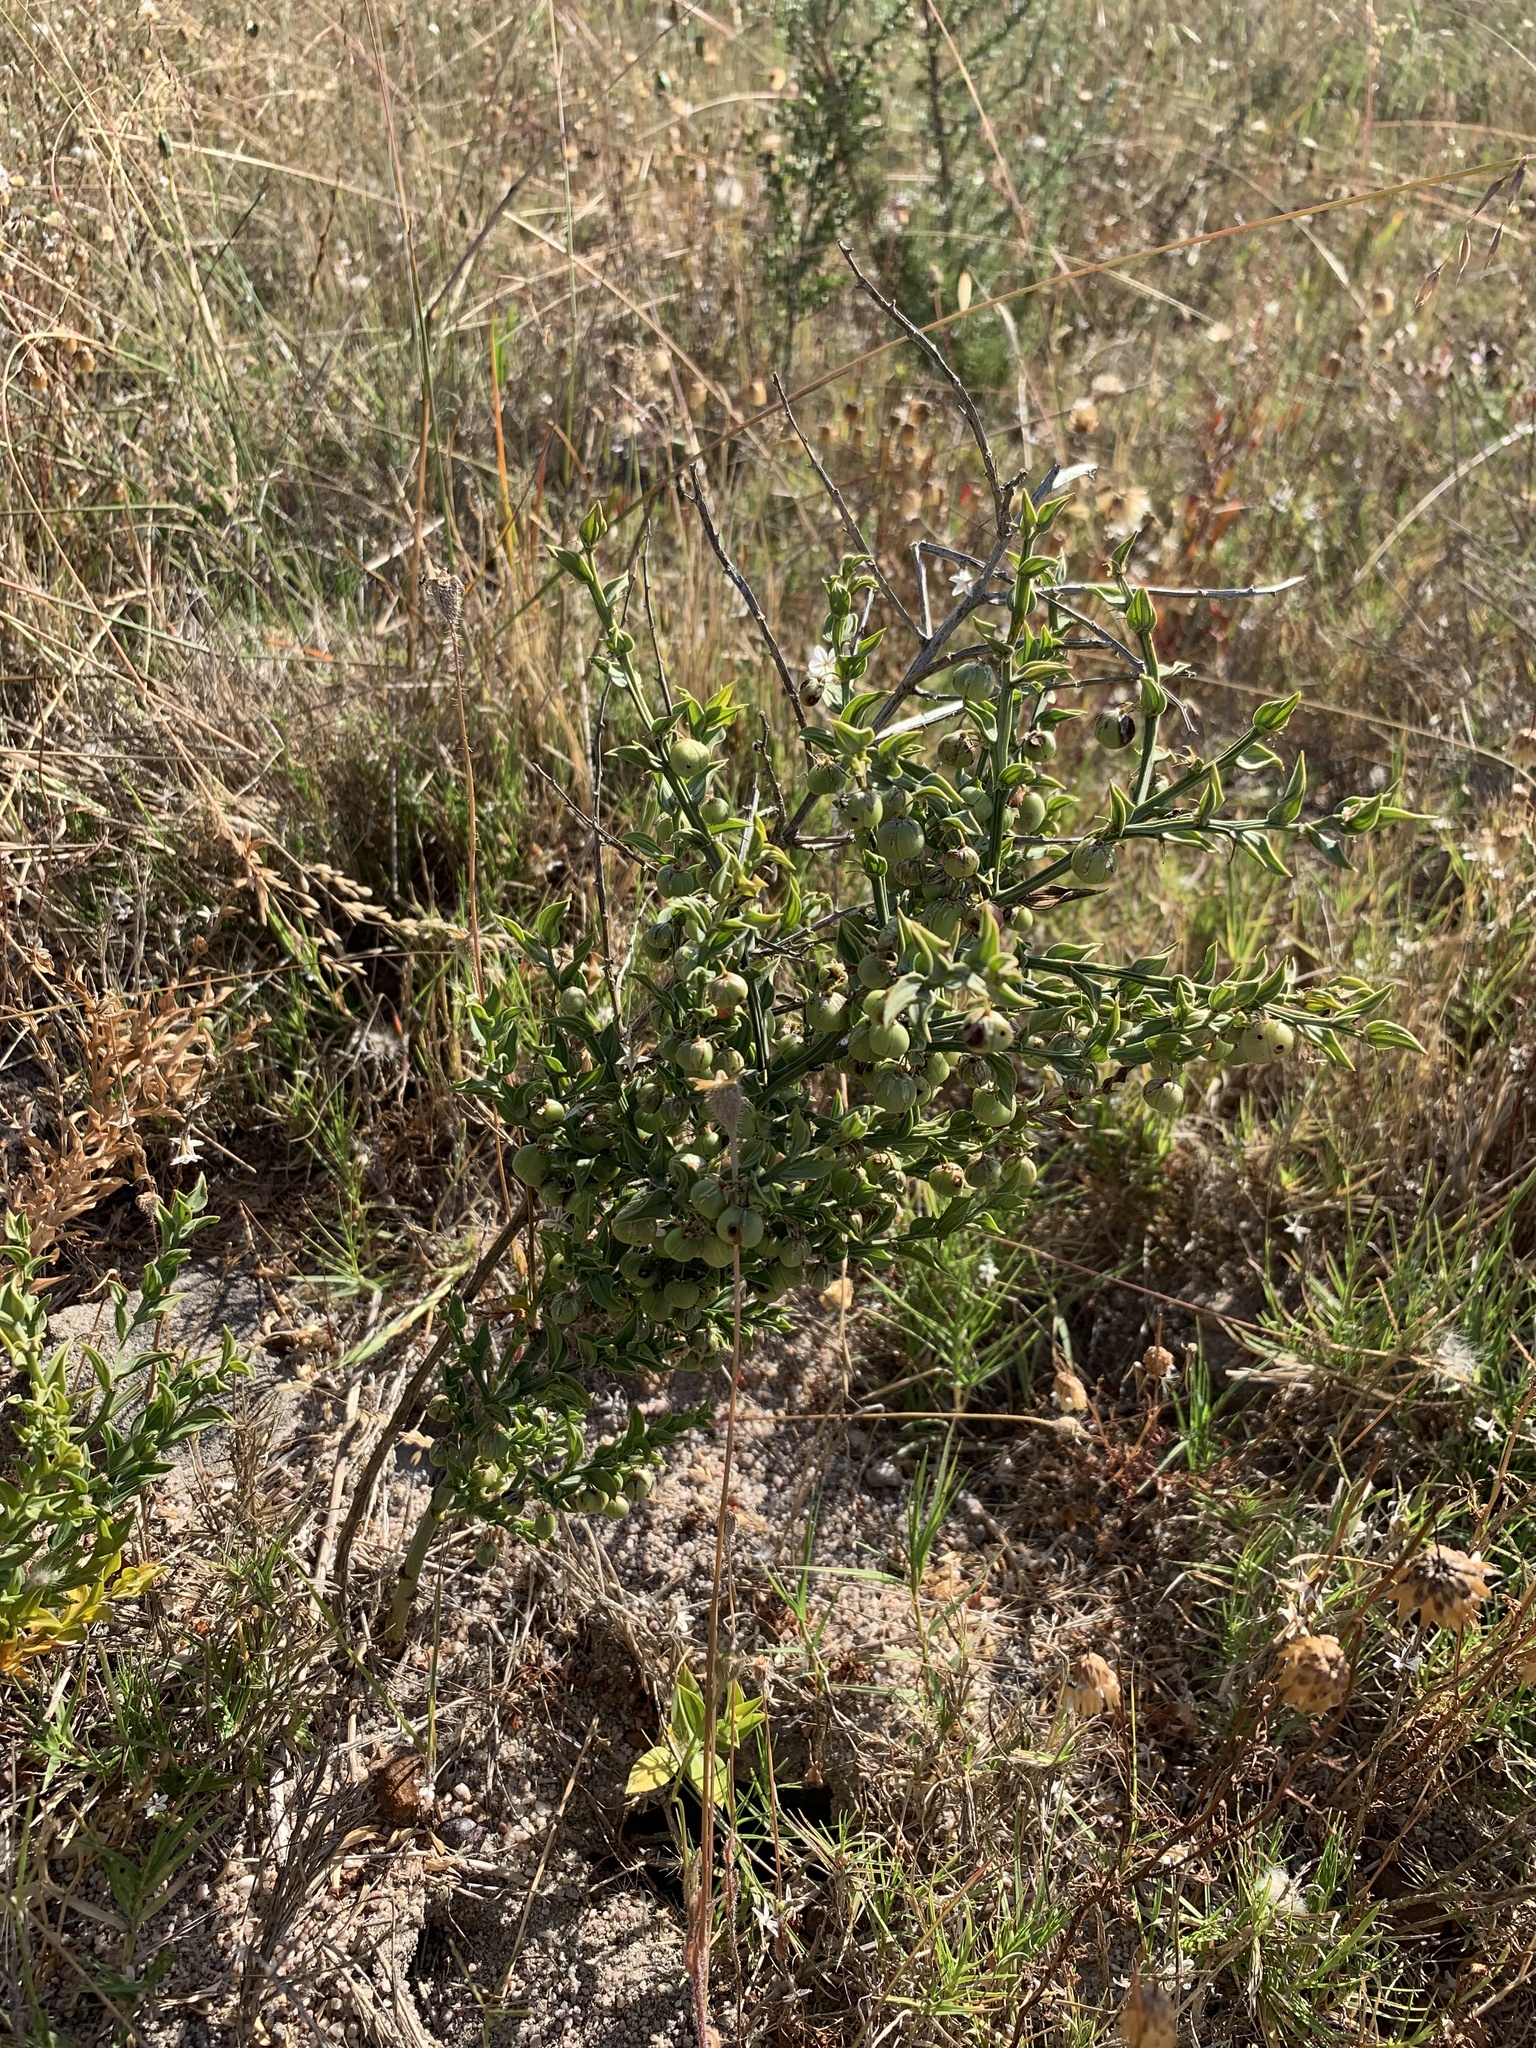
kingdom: Plantae
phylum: Tracheophyta
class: Liliopsida
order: Asparagales
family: Asparagaceae
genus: Asparagus
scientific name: Asparagus undulatus
